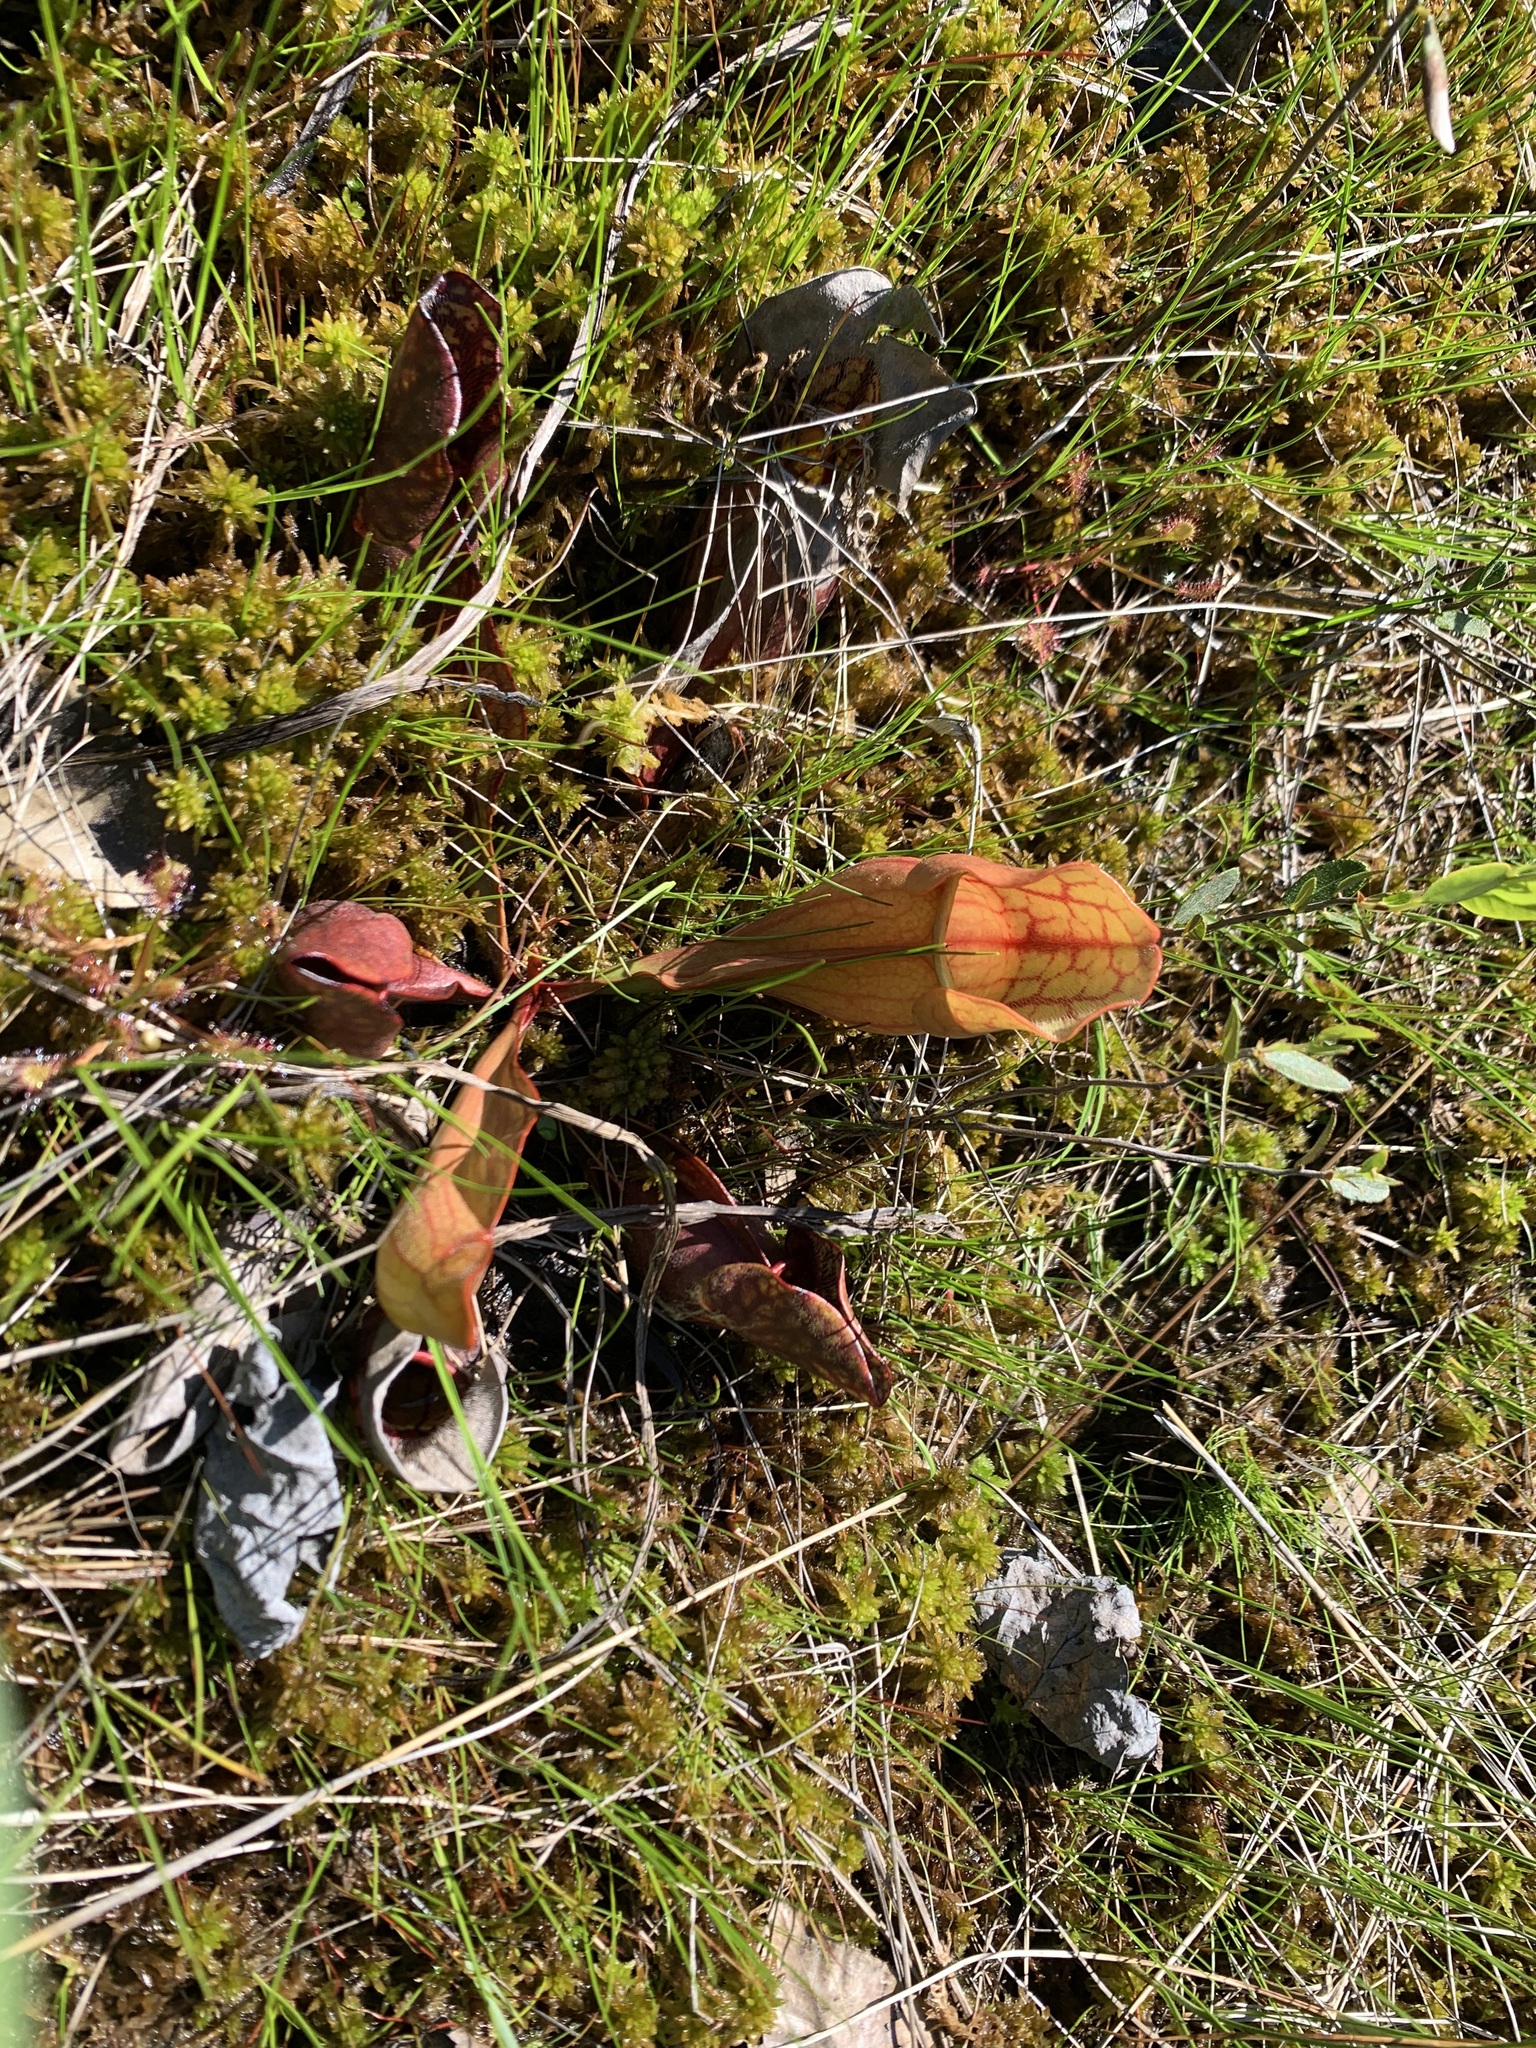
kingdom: Plantae
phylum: Tracheophyta
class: Magnoliopsida
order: Ericales
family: Sarraceniaceae
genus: Sarracenia
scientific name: Sarracenia purpurea
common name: Pitcherplant
